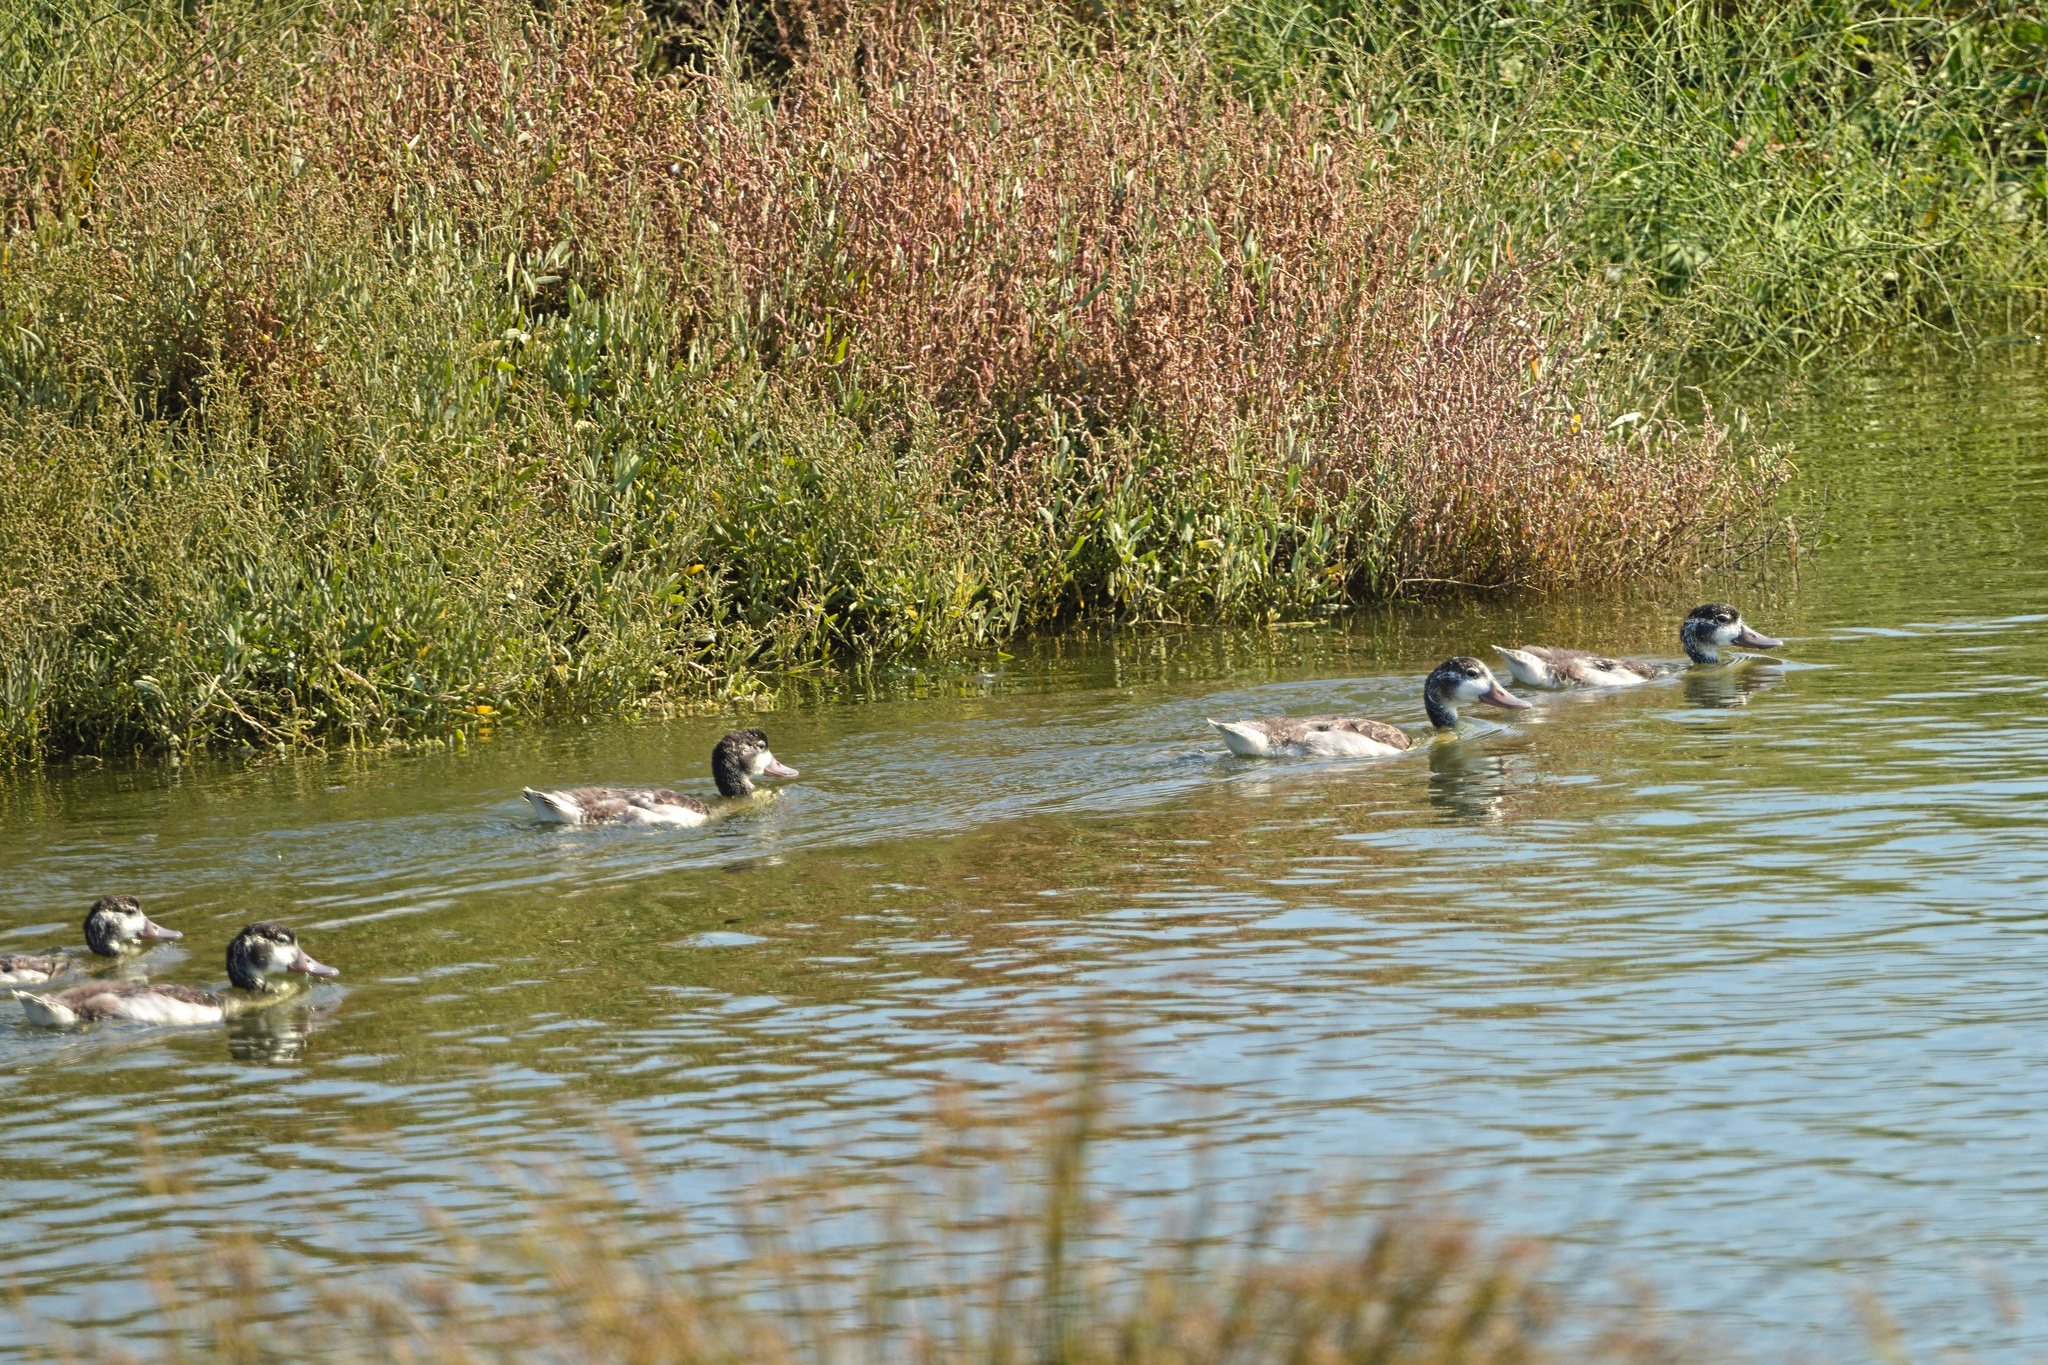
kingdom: Animalia
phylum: Chordata
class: Aves
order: Anseriformes
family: Anatidae
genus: Tadorna
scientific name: Tadorna tadorna
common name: Common shelduck
